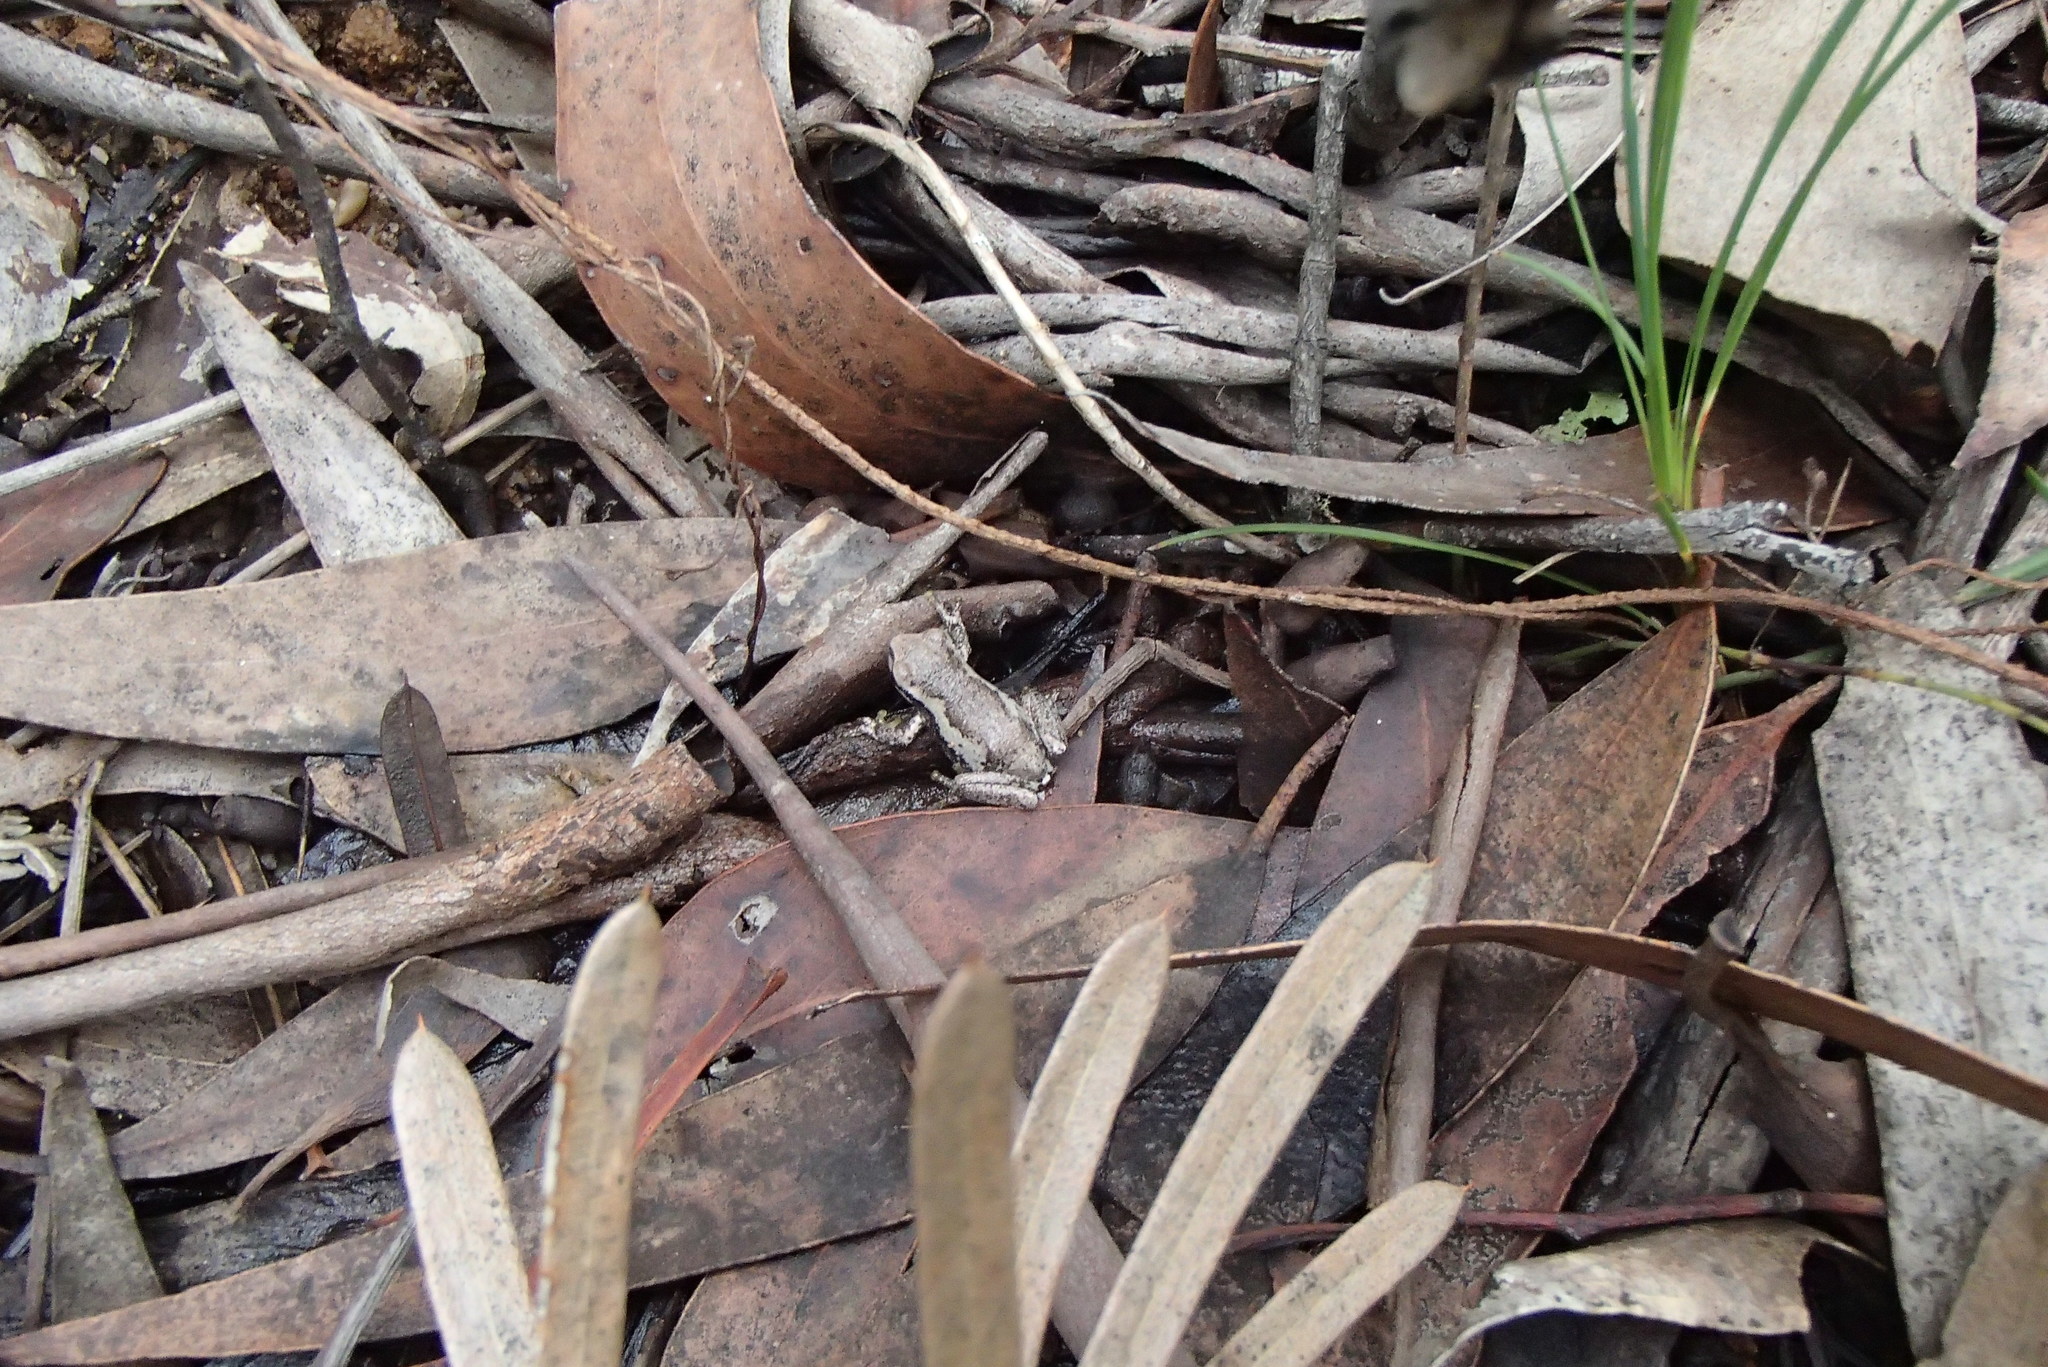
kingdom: Animalia
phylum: Chordata
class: Amphibia
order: Anura
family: Pelodryadidae
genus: Litoria
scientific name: Litoria quiritatus
